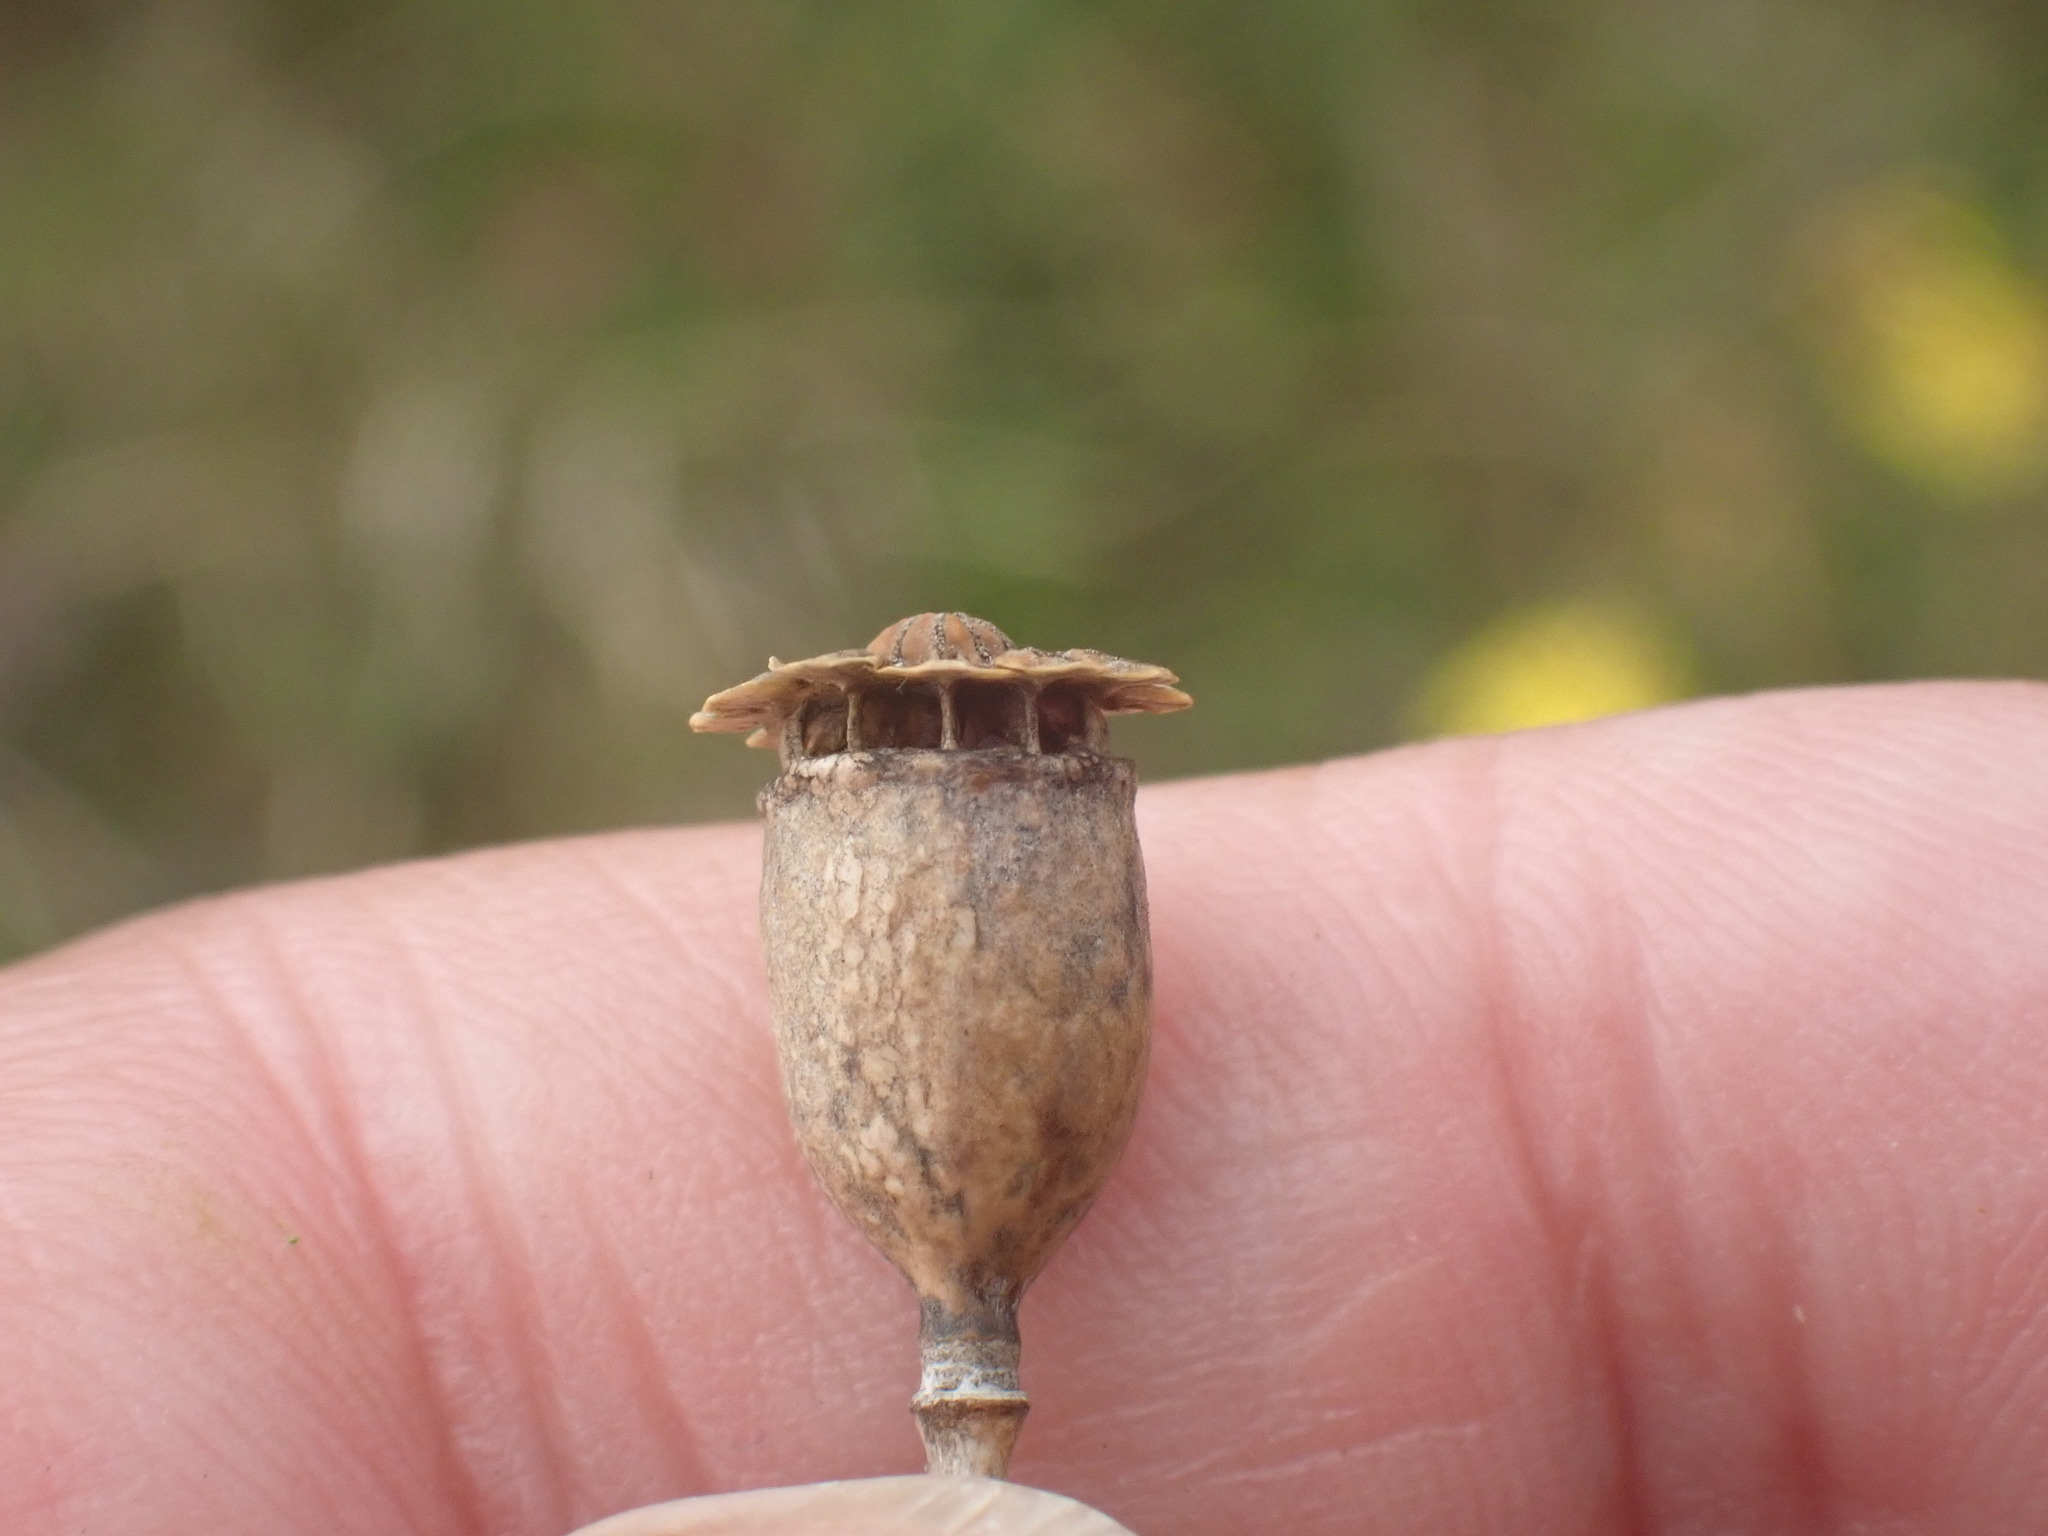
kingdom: Plantae
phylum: Tracheophyta
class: Magnoliopsida
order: Ranunculales
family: Papaveraceae
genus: Papaver
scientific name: Papaver rhoeas
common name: Corn poppy
